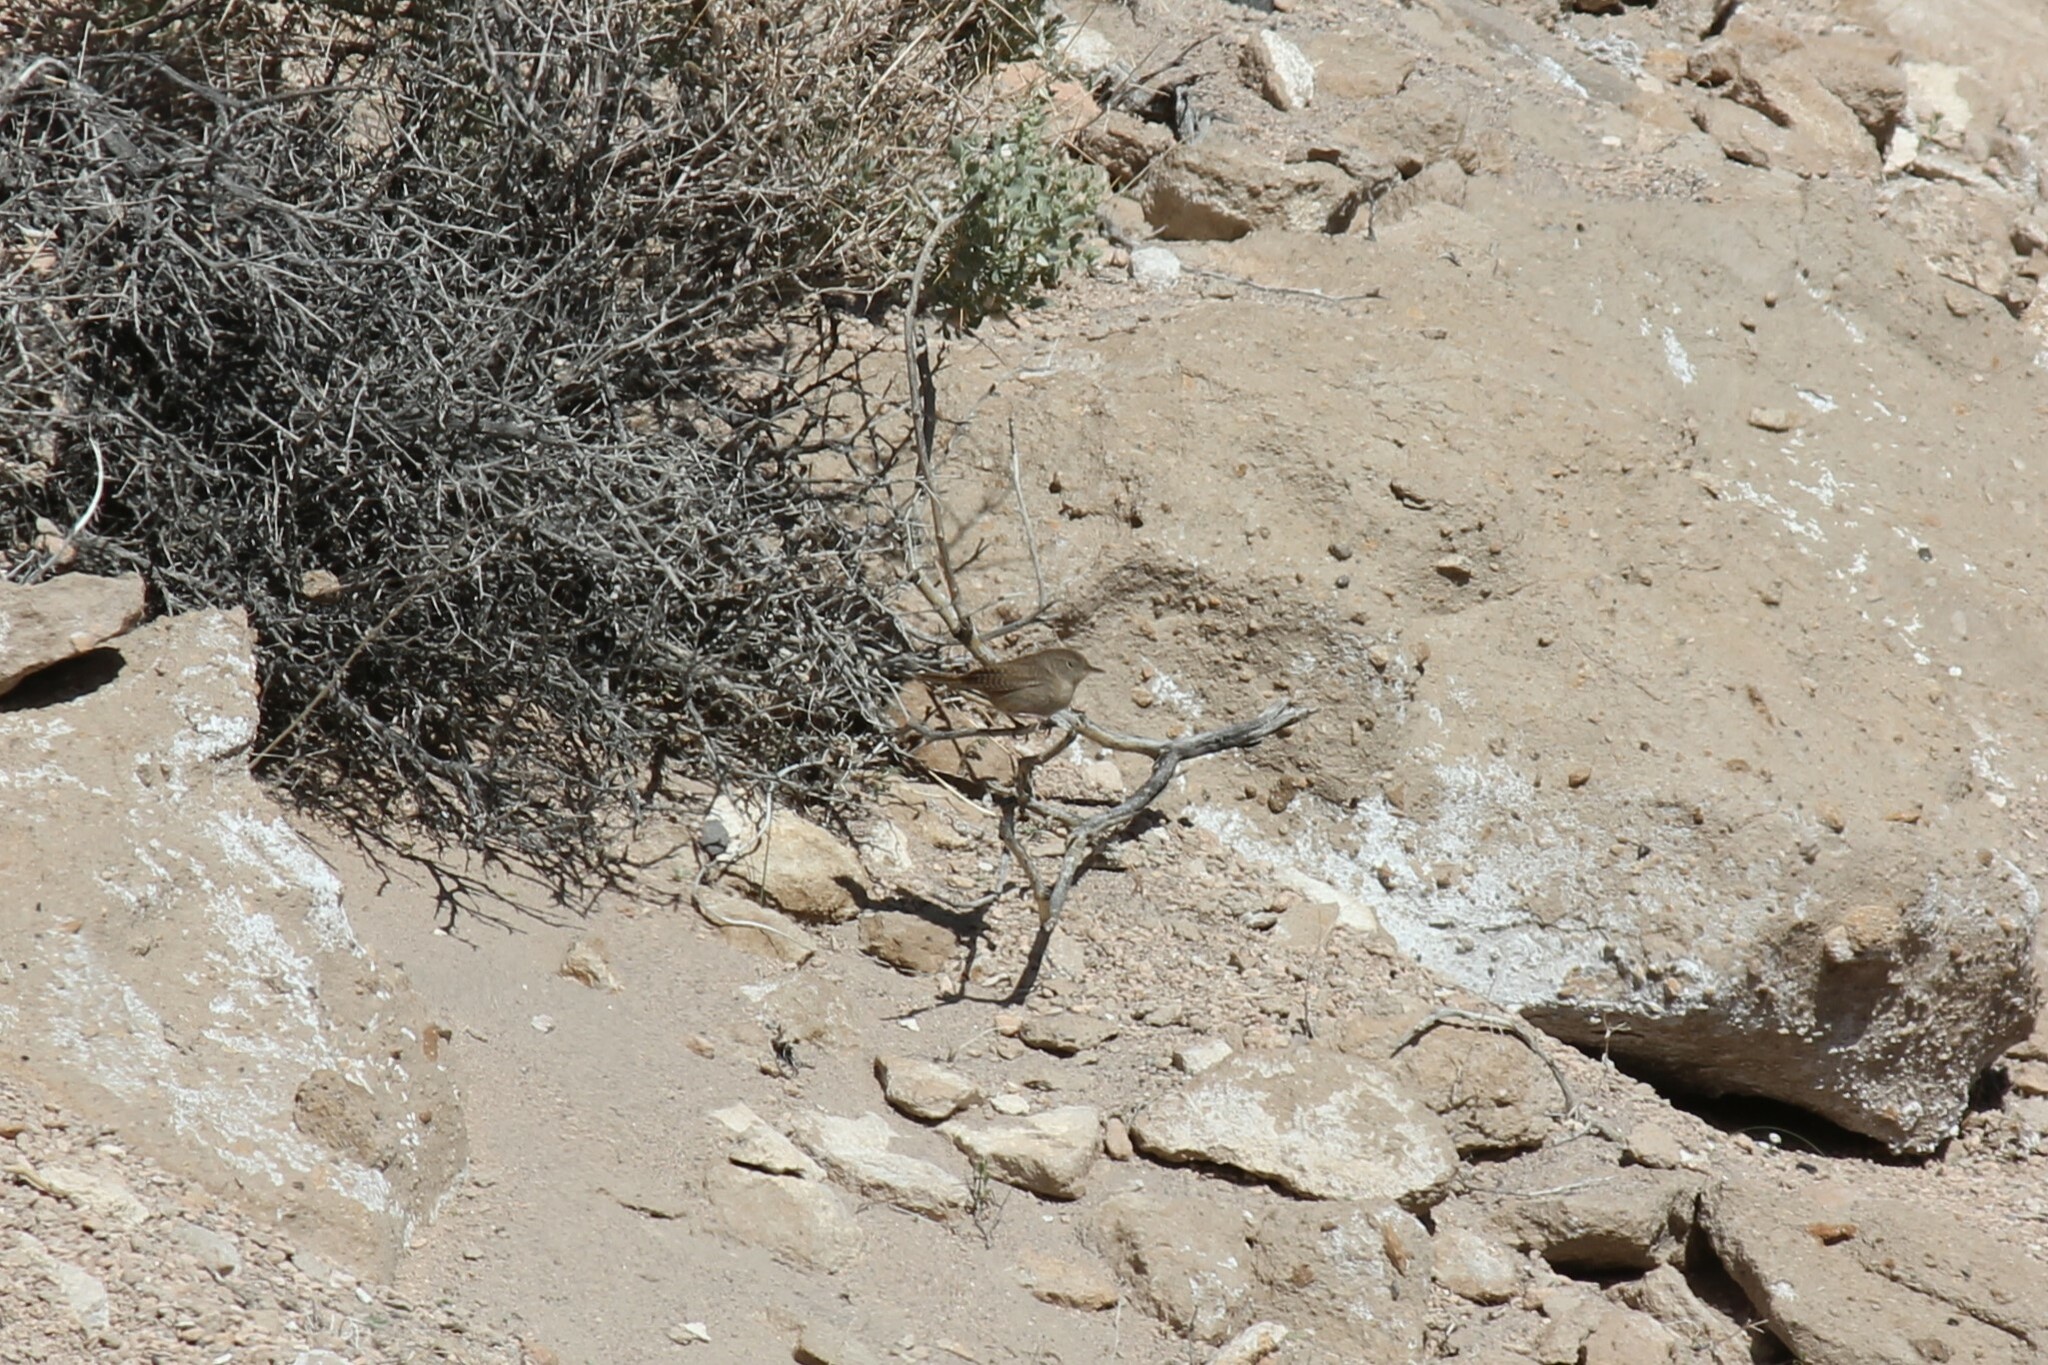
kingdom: Animalia
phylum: Chordata
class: Aves
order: Passeriformes
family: Troglodytidae
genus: Troglodytes
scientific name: Troglodytes aedon
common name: House wren
